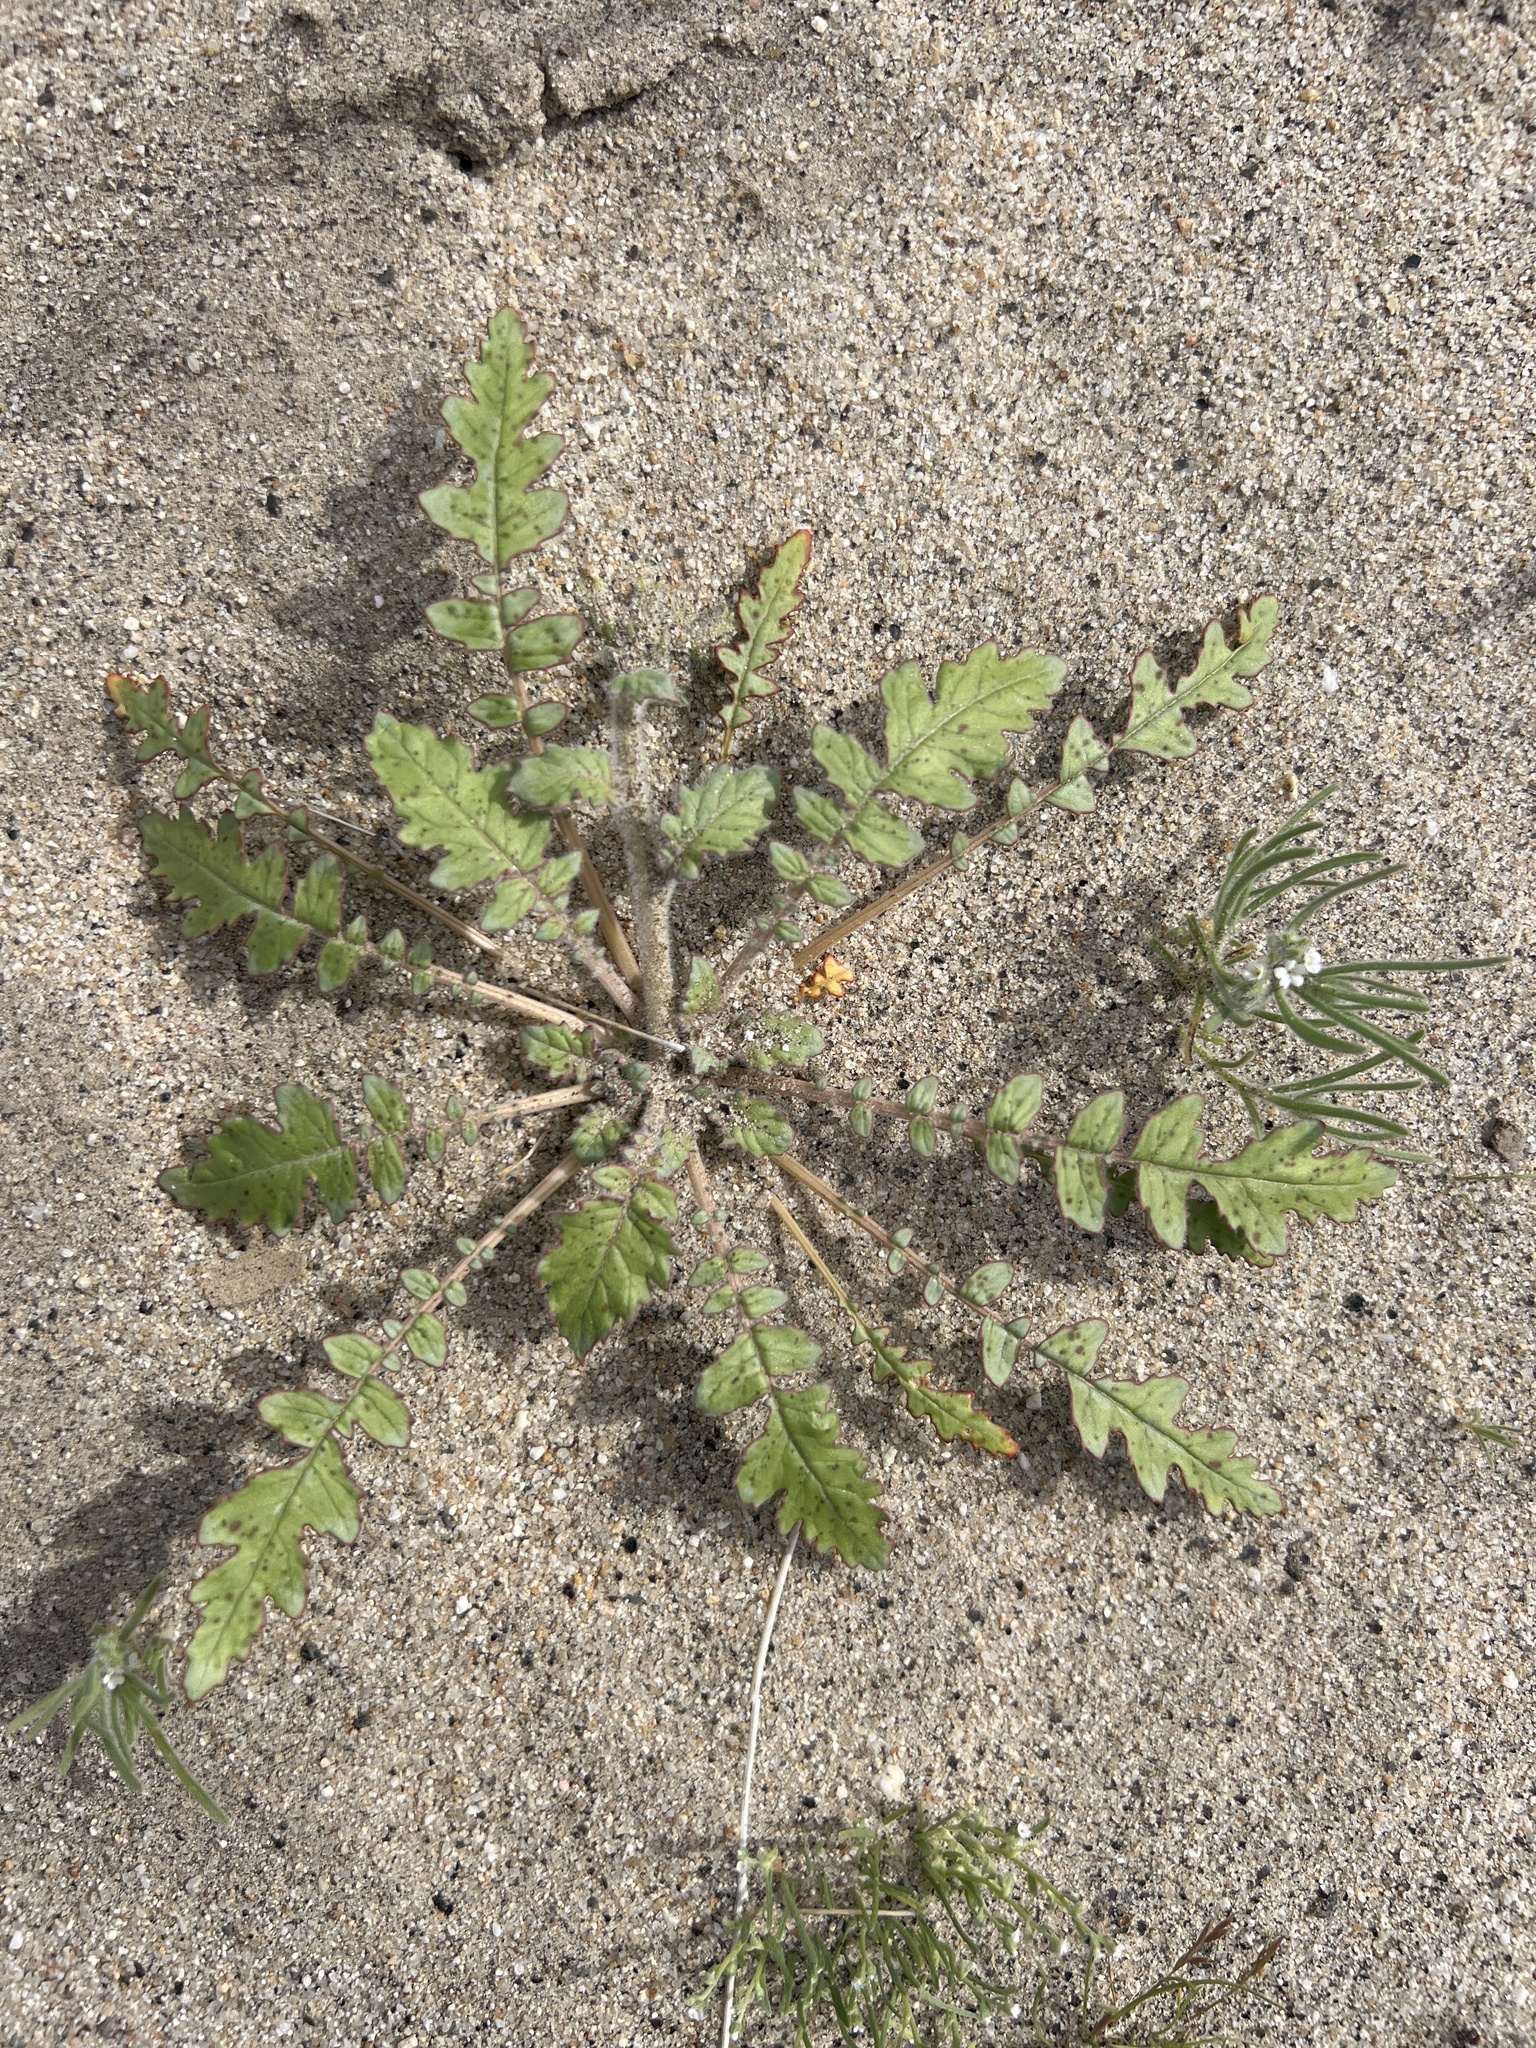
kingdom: Plantae
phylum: Tracheophyta
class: Magnoliopsida
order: Myrtales
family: Onagraceae
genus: Chylismia
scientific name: Chylismia claviformis
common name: Browneyes
